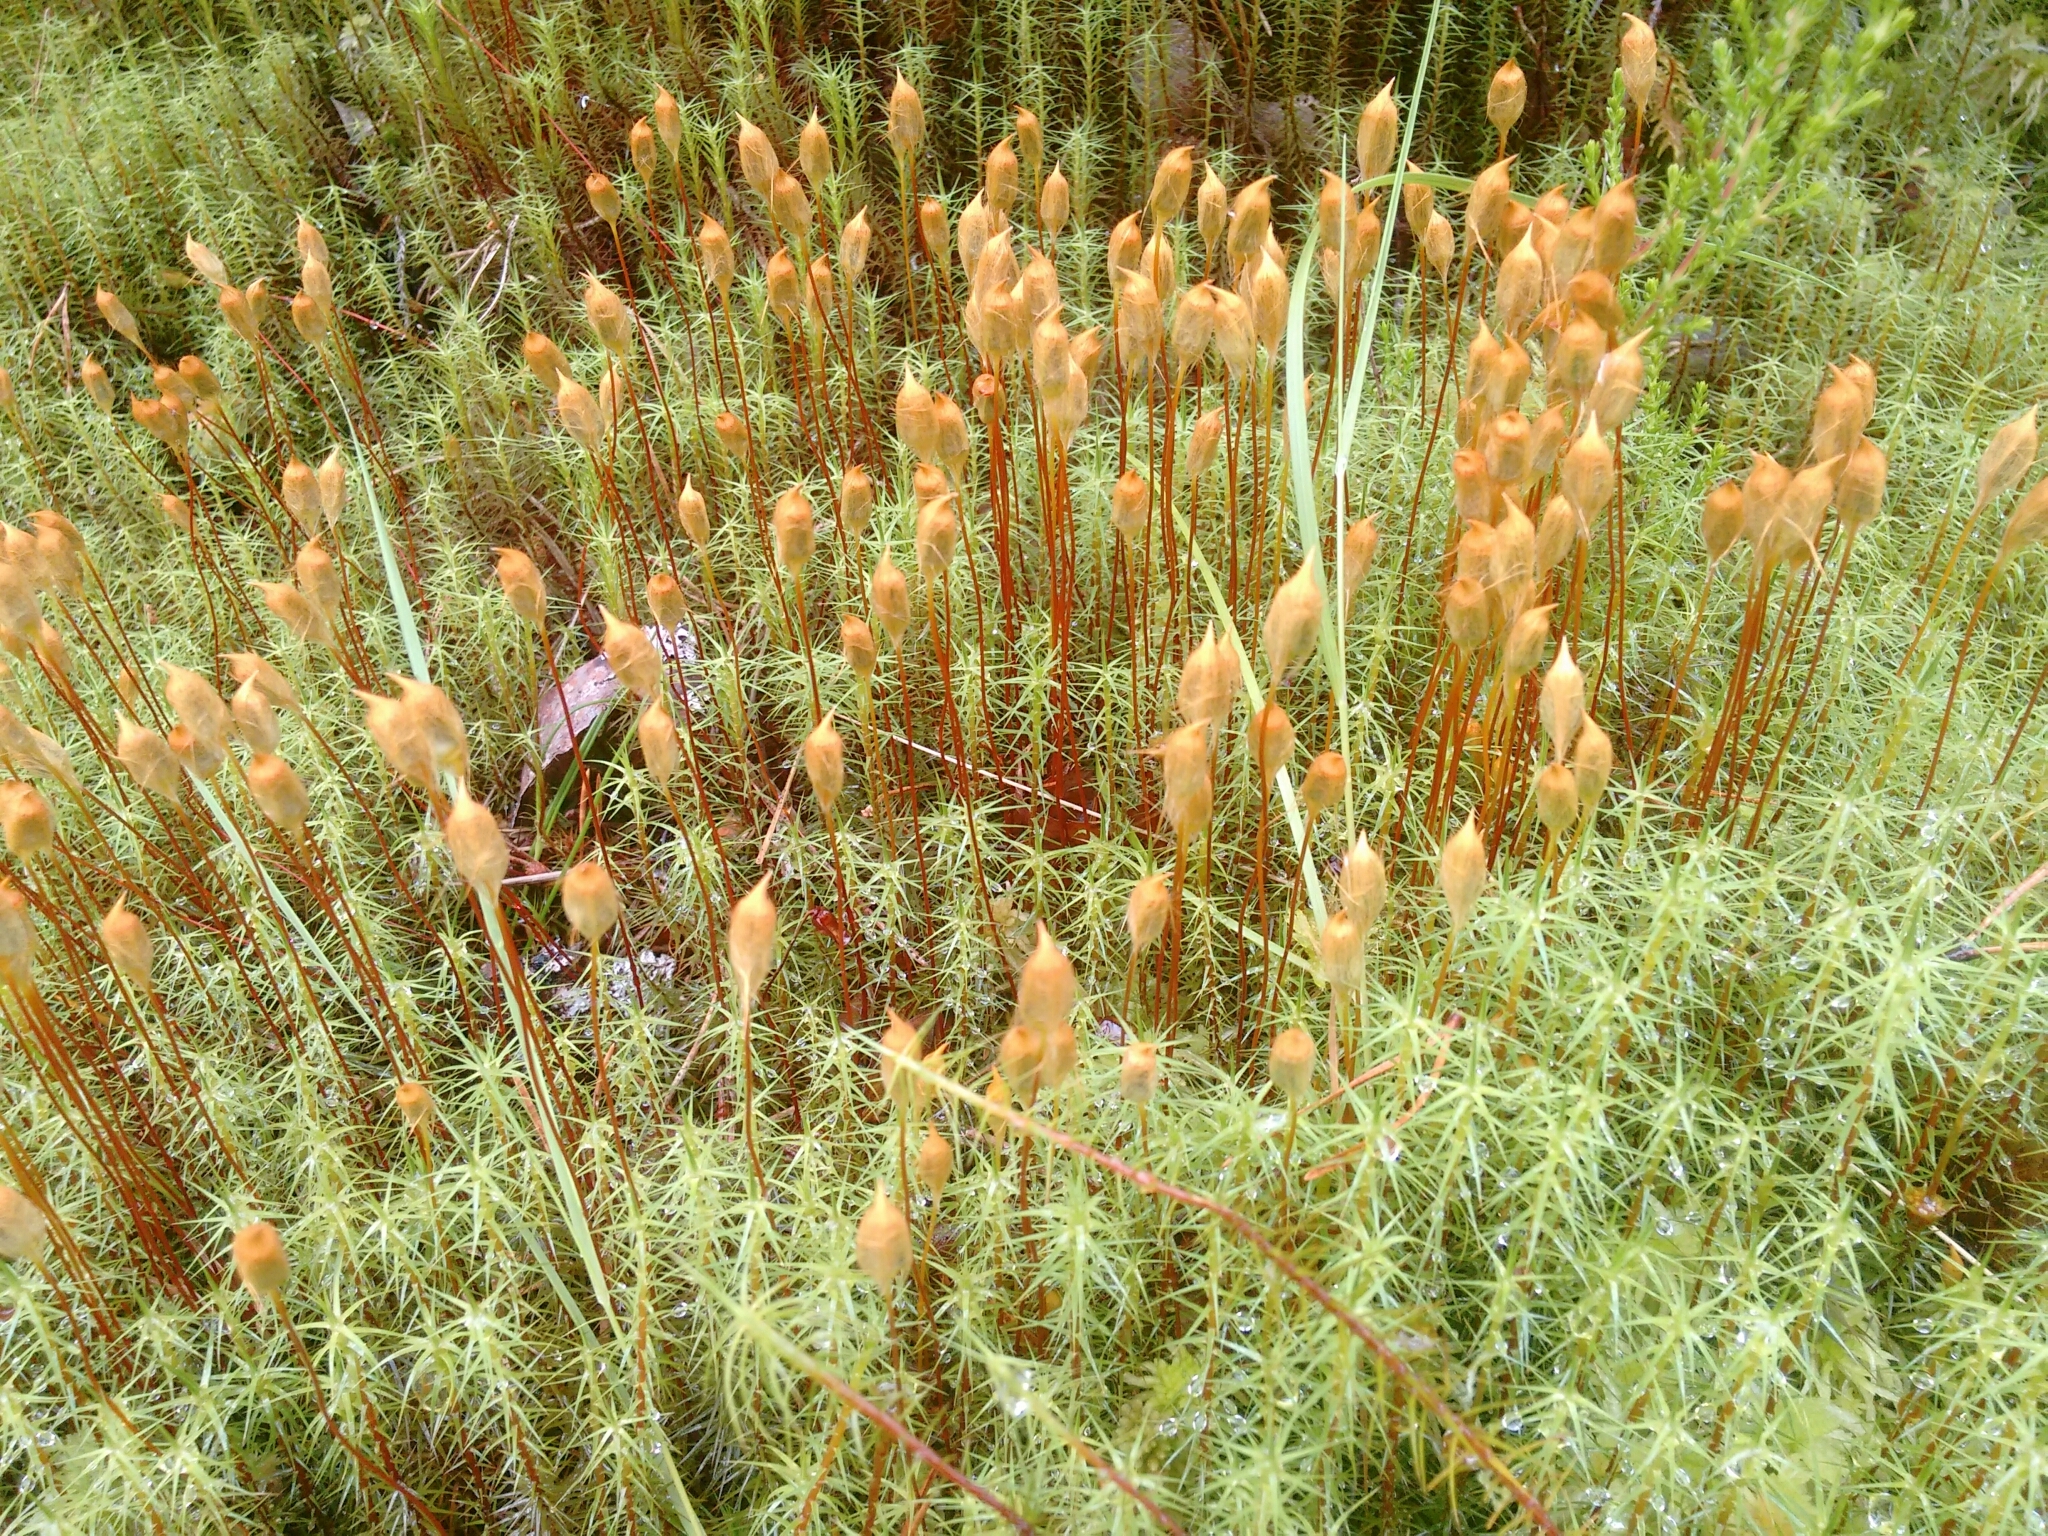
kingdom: Plantae
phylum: Bryophyta
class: Polytrichopsida
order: Polytrichales
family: Polytrichaceae
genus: Polytrichum
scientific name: Polytrichum commune
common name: Common haircap
